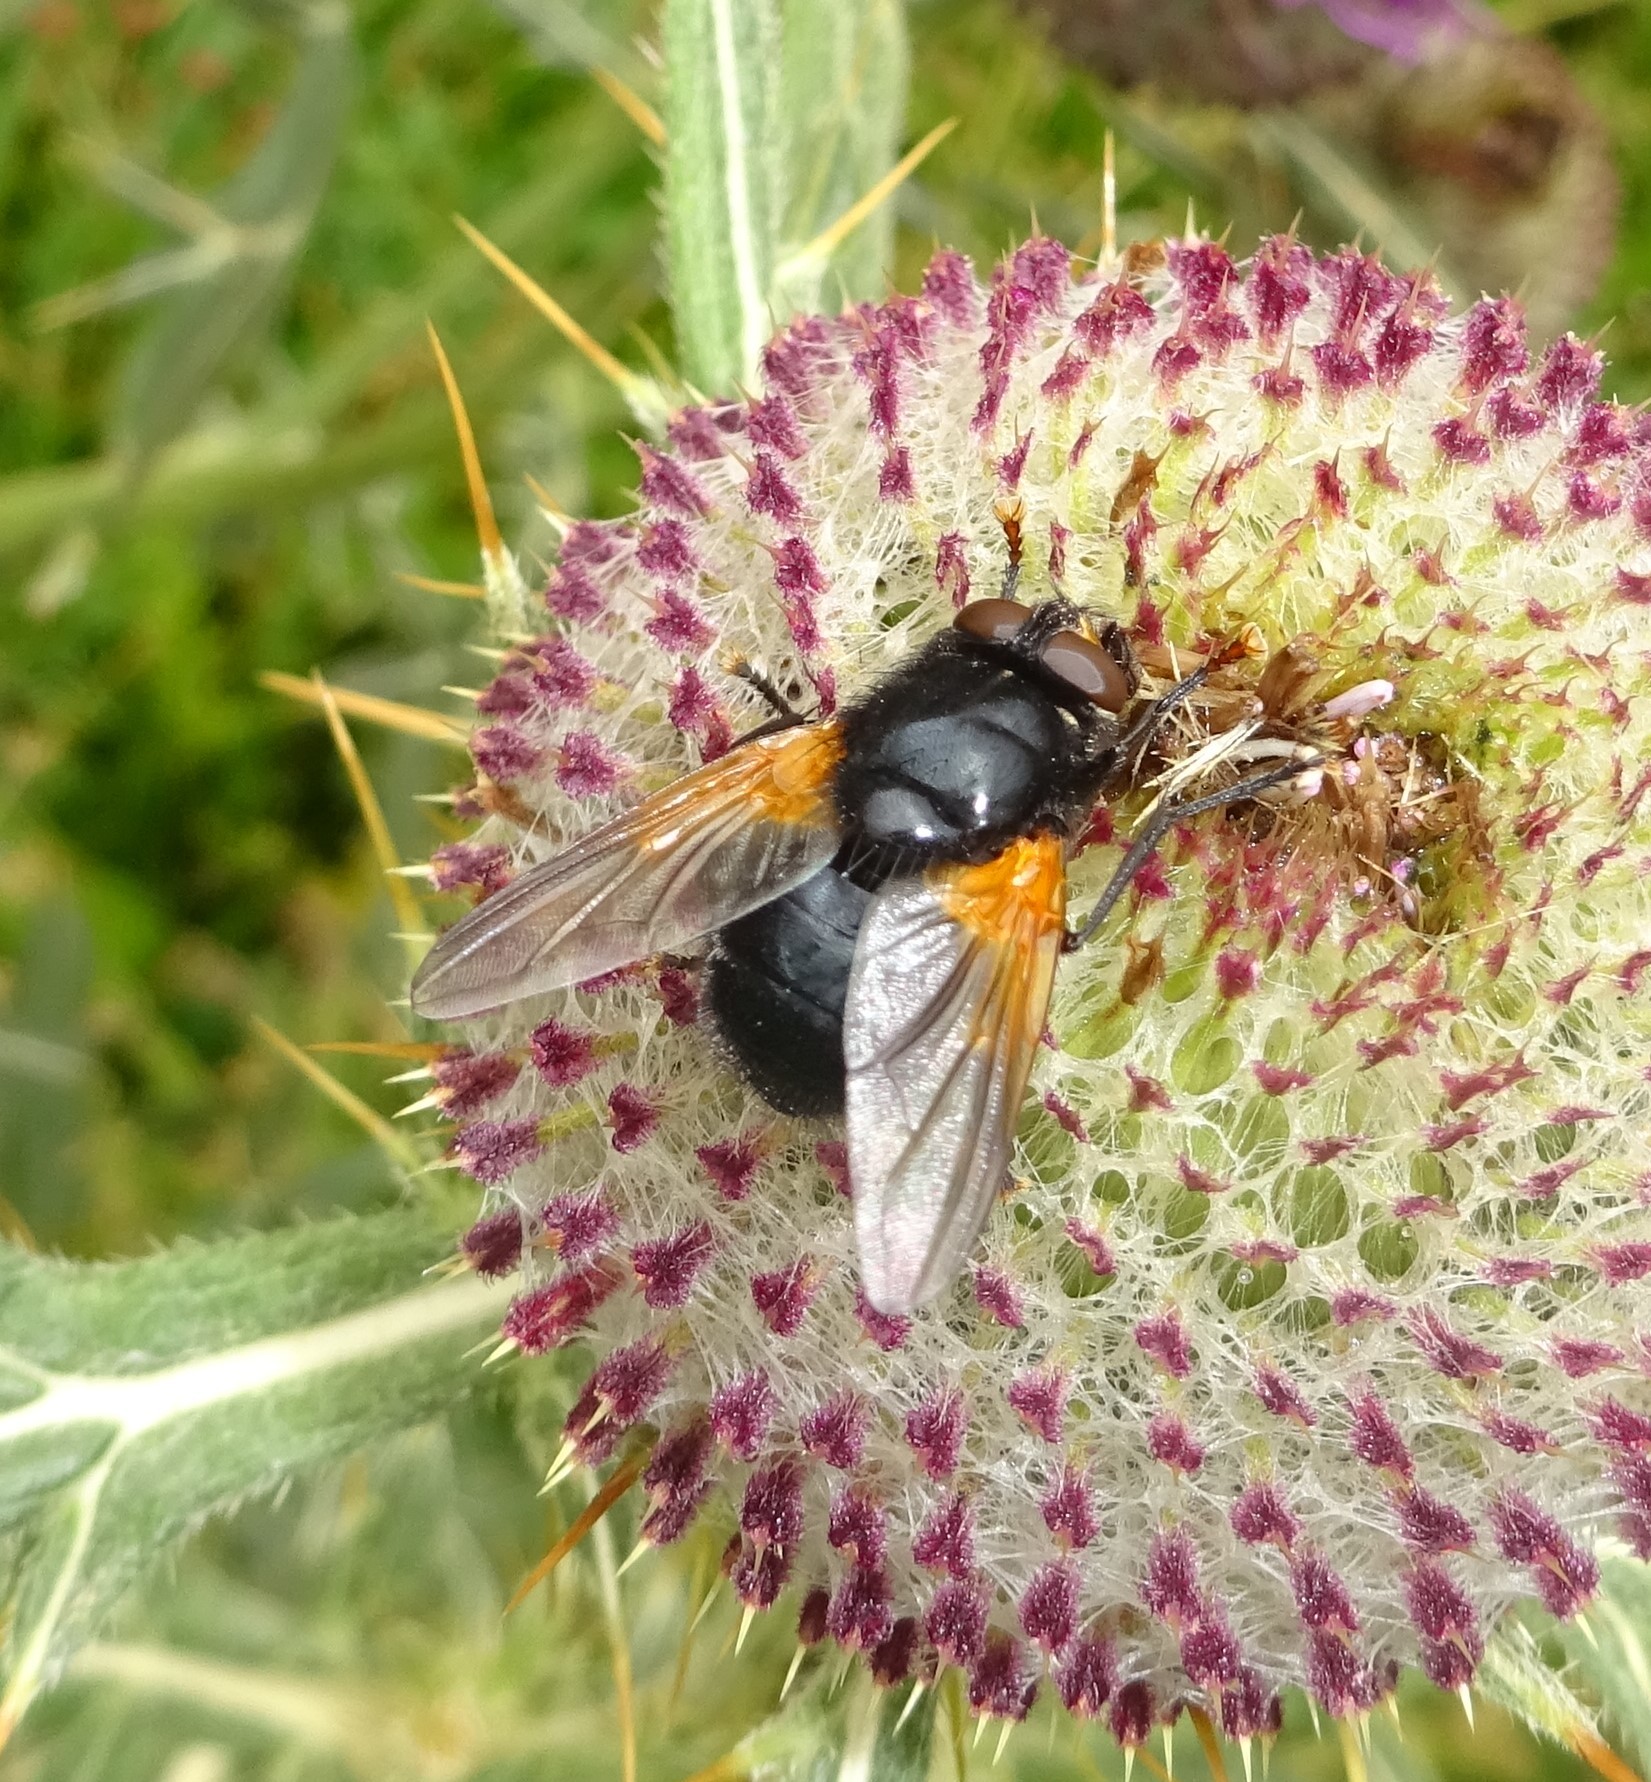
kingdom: Animalia
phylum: Arthropoda
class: Insecta
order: Diptera
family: Muscidae
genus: Mesembrina
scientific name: Mesembrina meridiana
